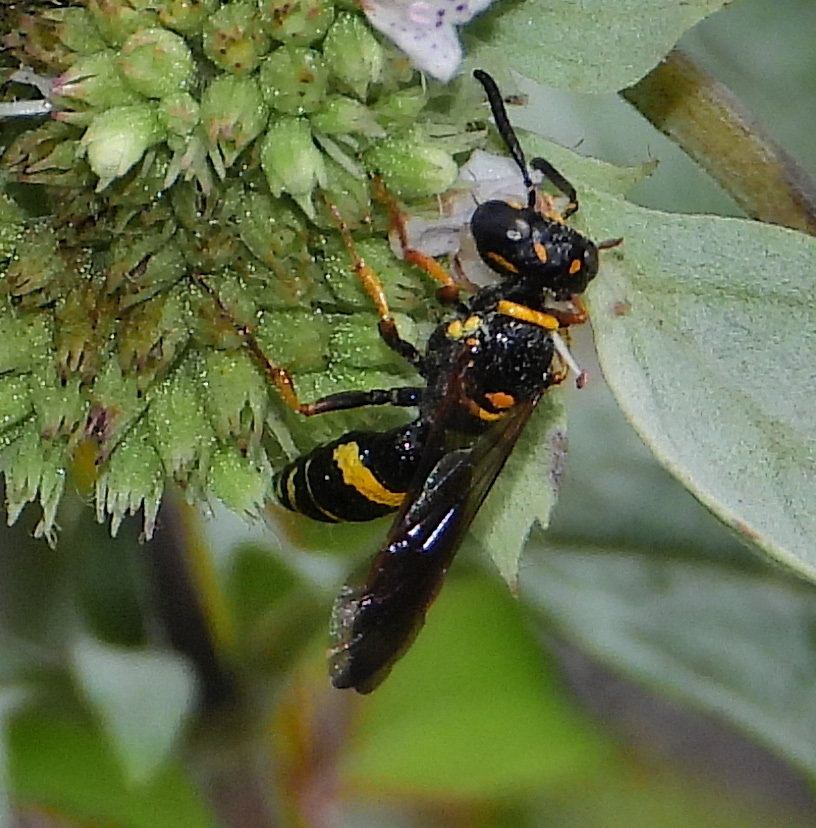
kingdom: Animalia
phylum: Arthropoda
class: Insecta
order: Hymenoptera
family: Crabronidae
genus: Philanthus
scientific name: Philanthus gibbosus
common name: Humped beewolf
